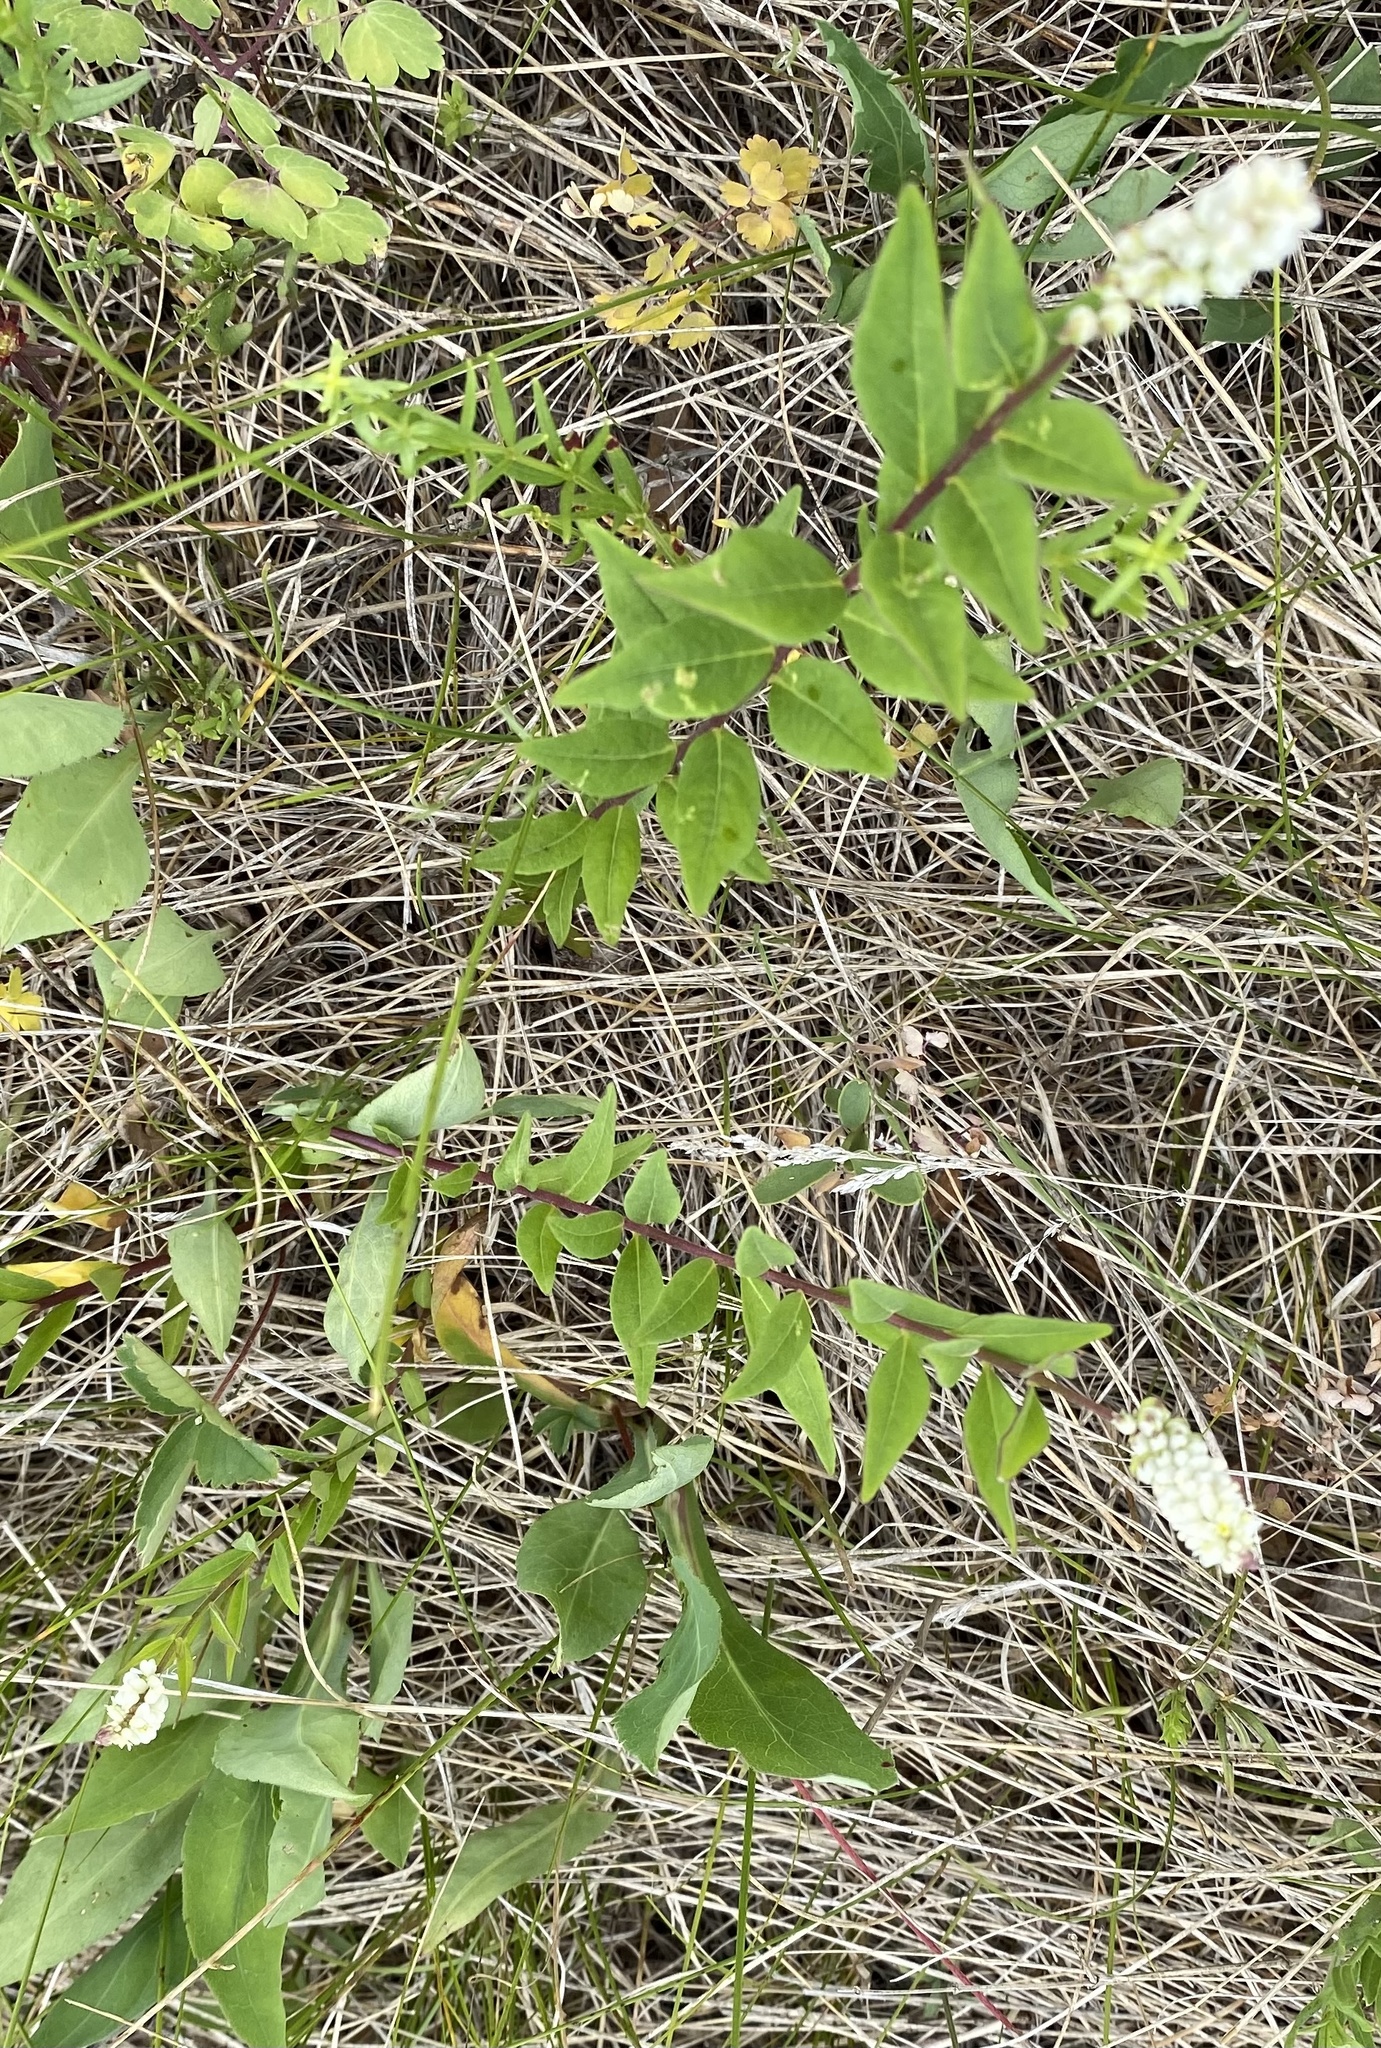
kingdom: Plantae
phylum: Tracheophyta
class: Magnoliopsida
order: Fabales
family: Polygalaceae
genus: Polygala
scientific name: Polygala senega
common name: Seneca snakeroot
